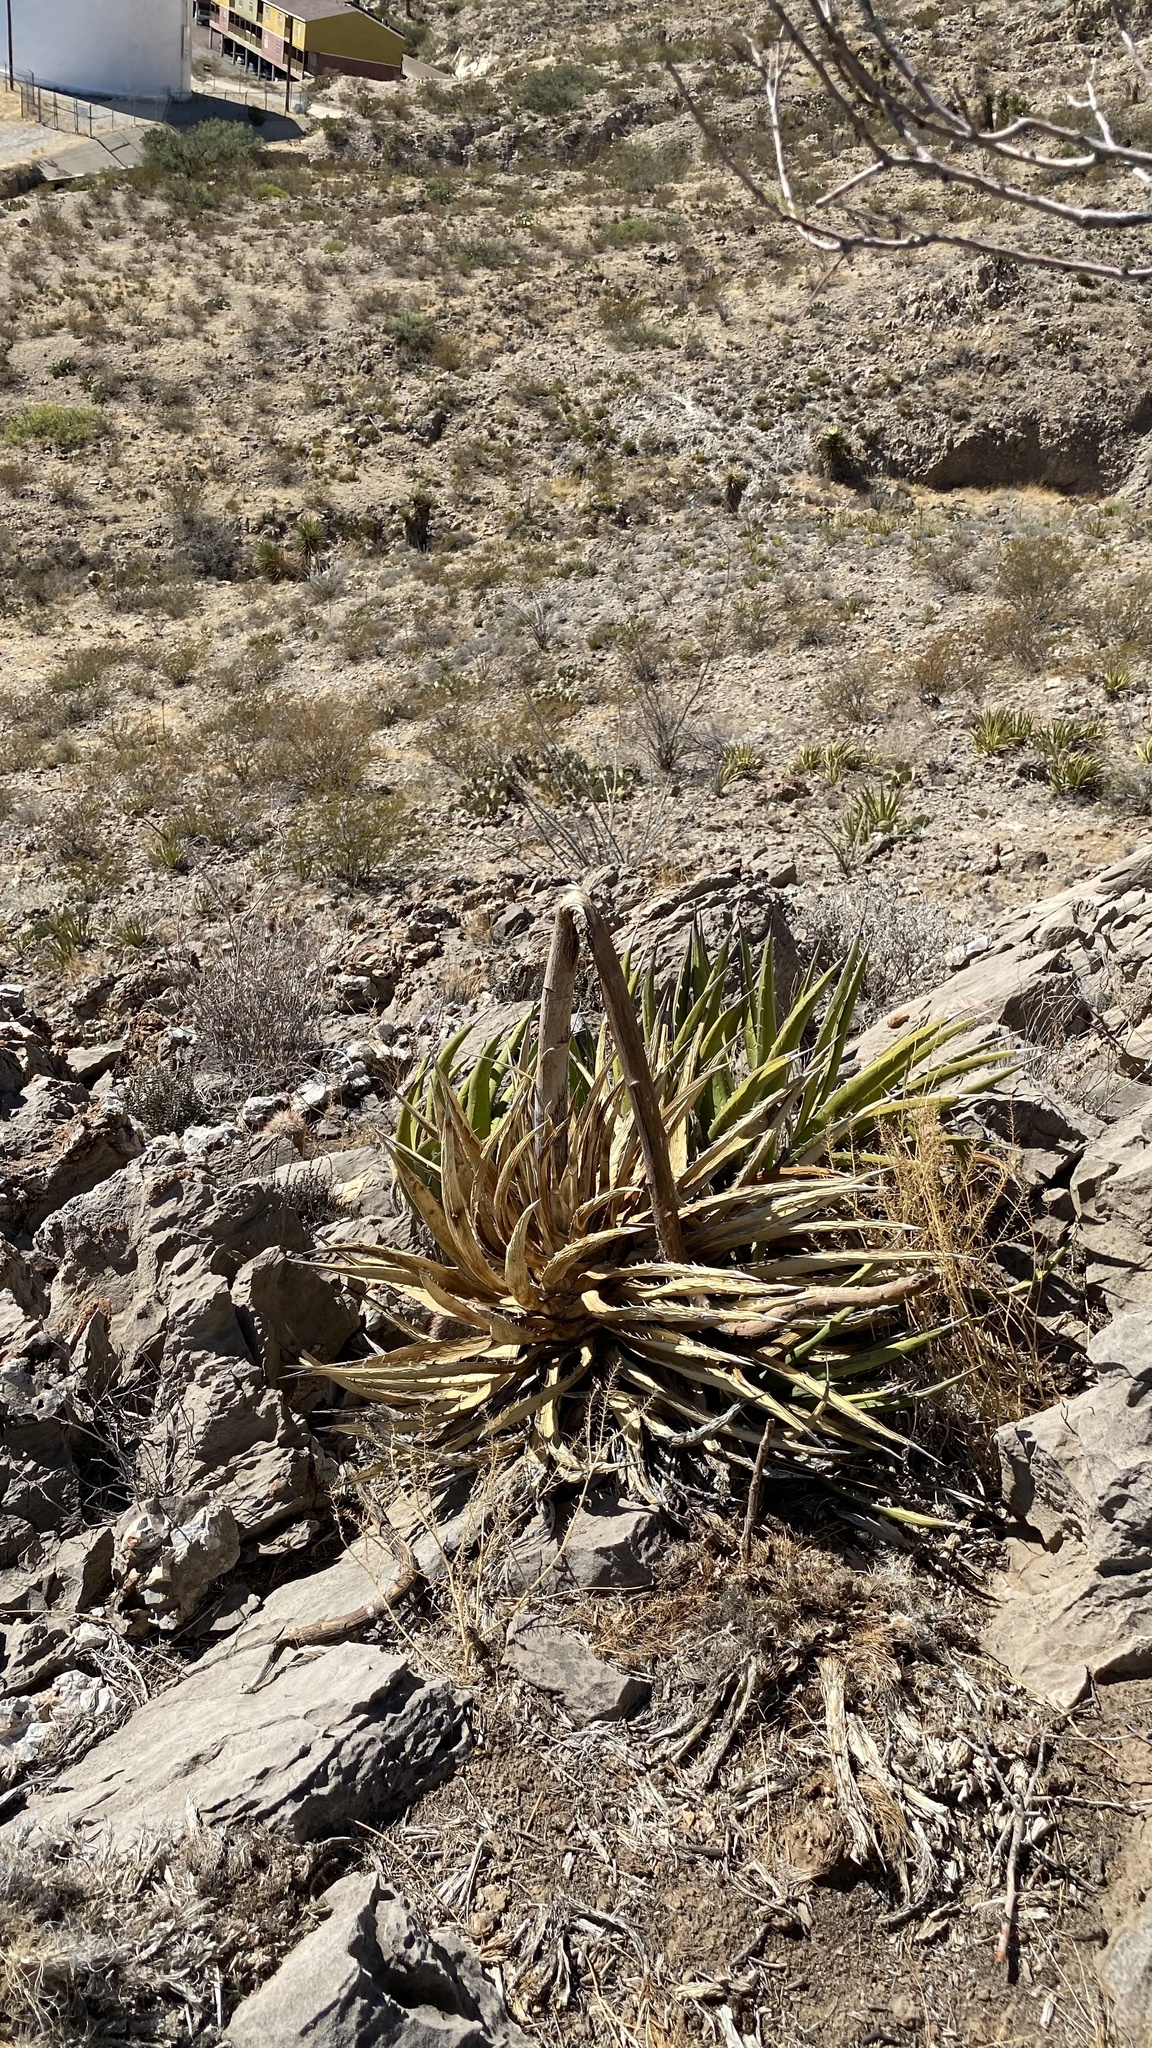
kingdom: Plantae
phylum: Tracheophyta
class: Liliopsida
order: Asparagales
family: Asparagaceae
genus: Agave
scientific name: Agave lechuguilla
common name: Lecheguilla agave
